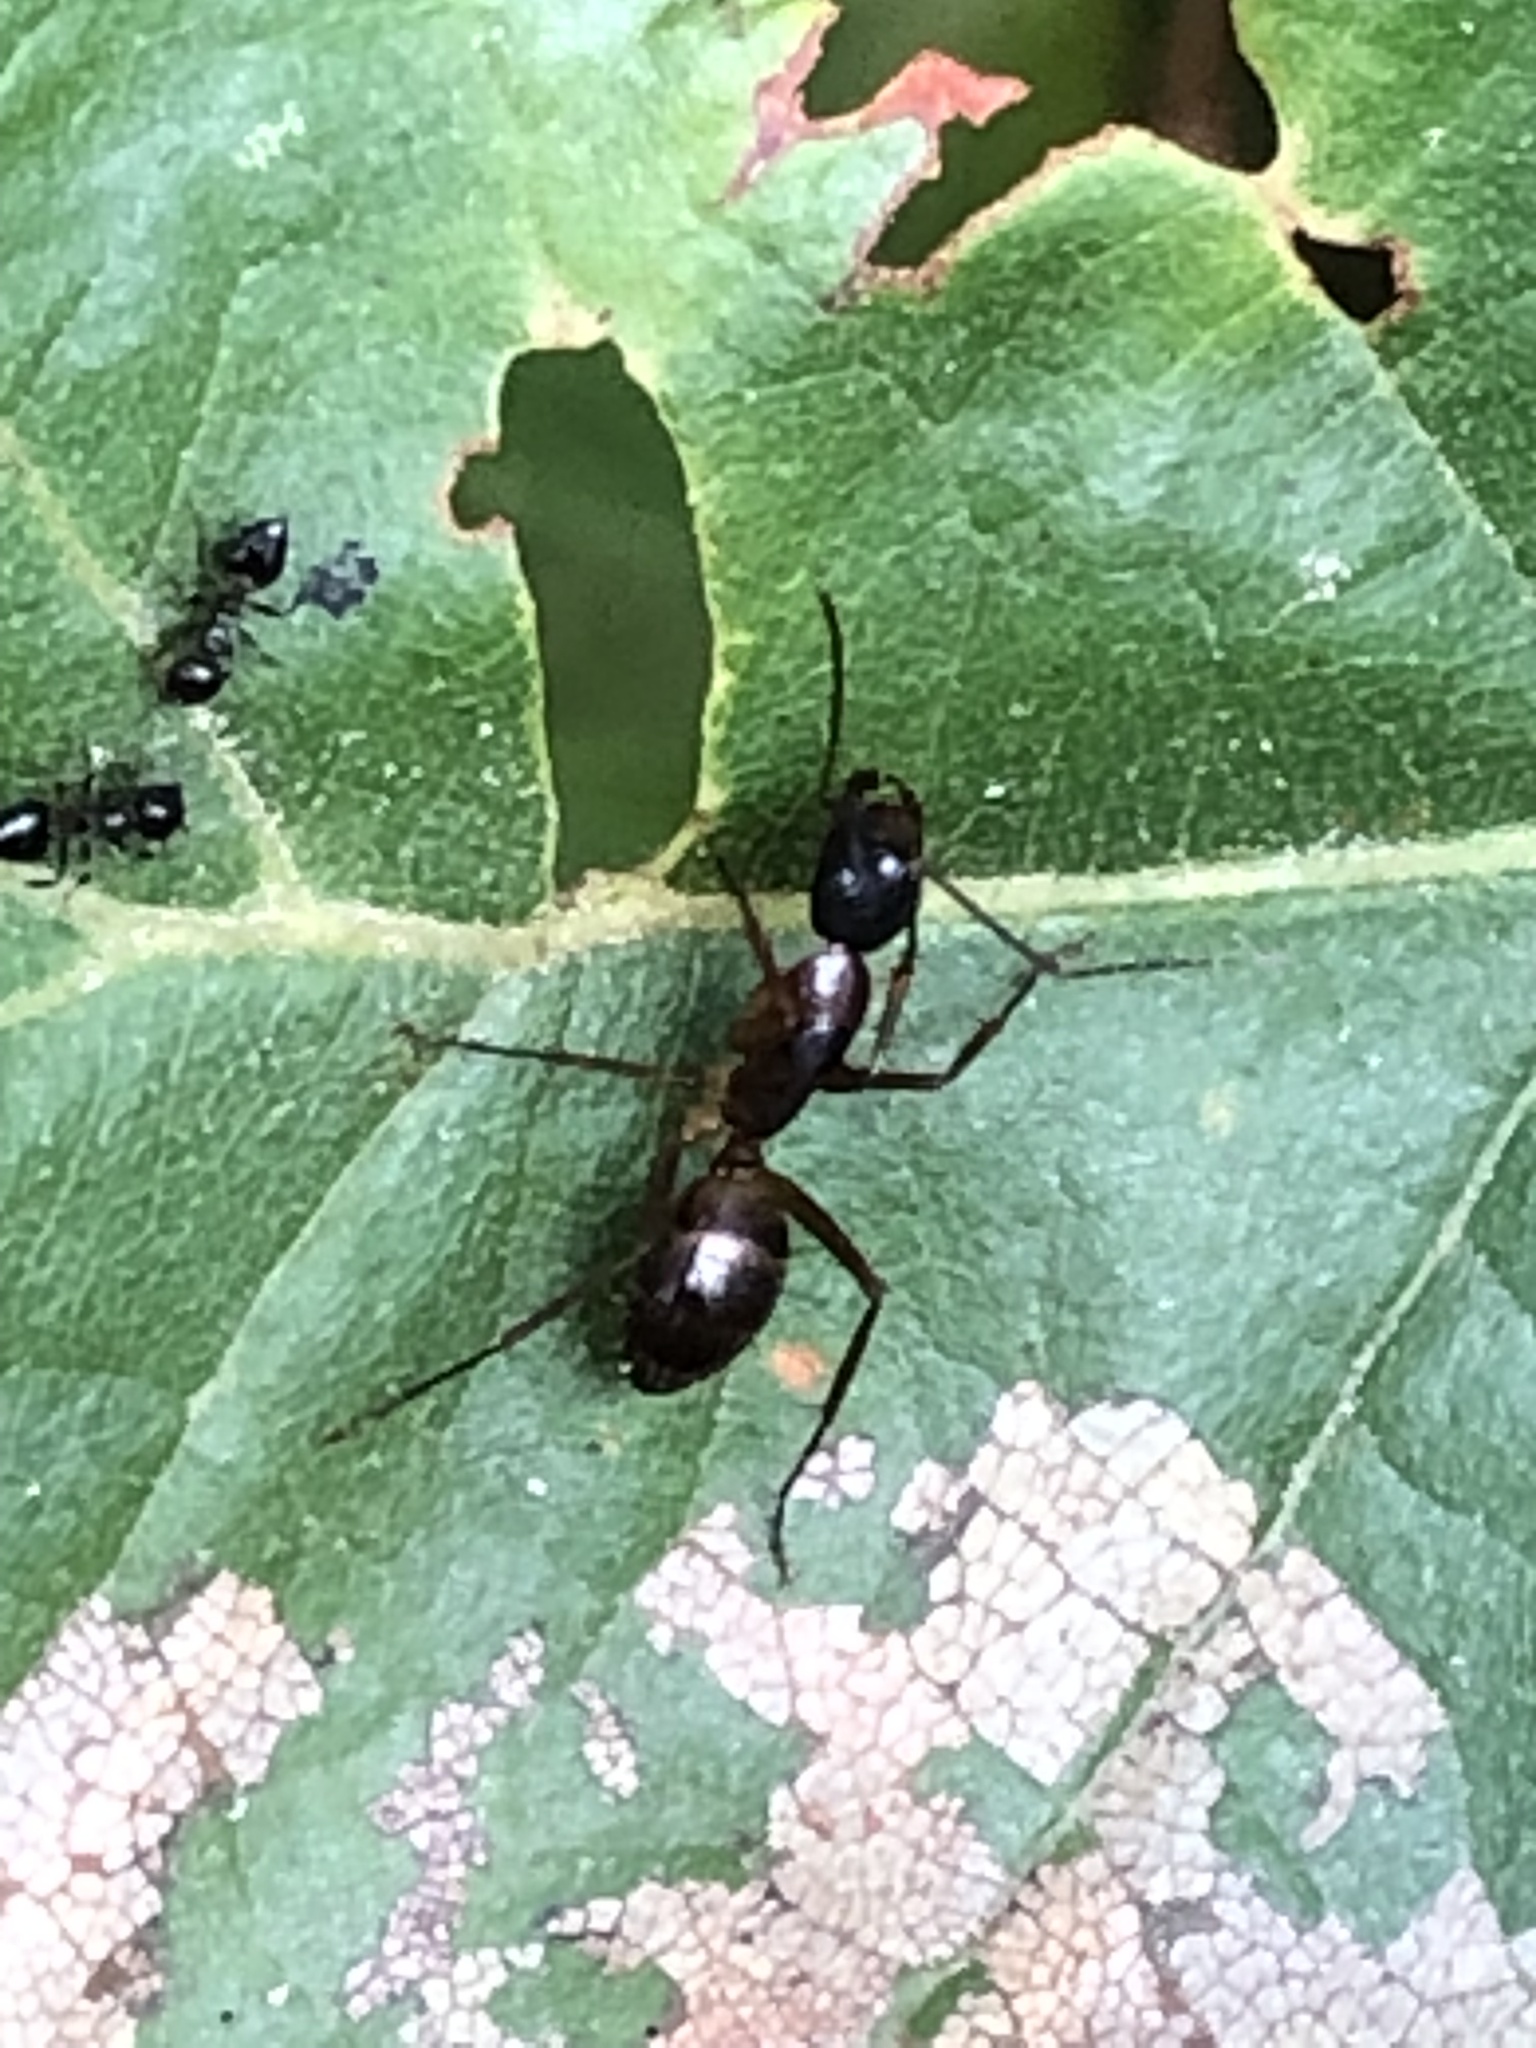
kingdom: Animalia
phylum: Arthropoda
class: Insecta
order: Hymenoptera
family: Formicidae
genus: Camponotus
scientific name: Camponotus americanus
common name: American carpenter ant
